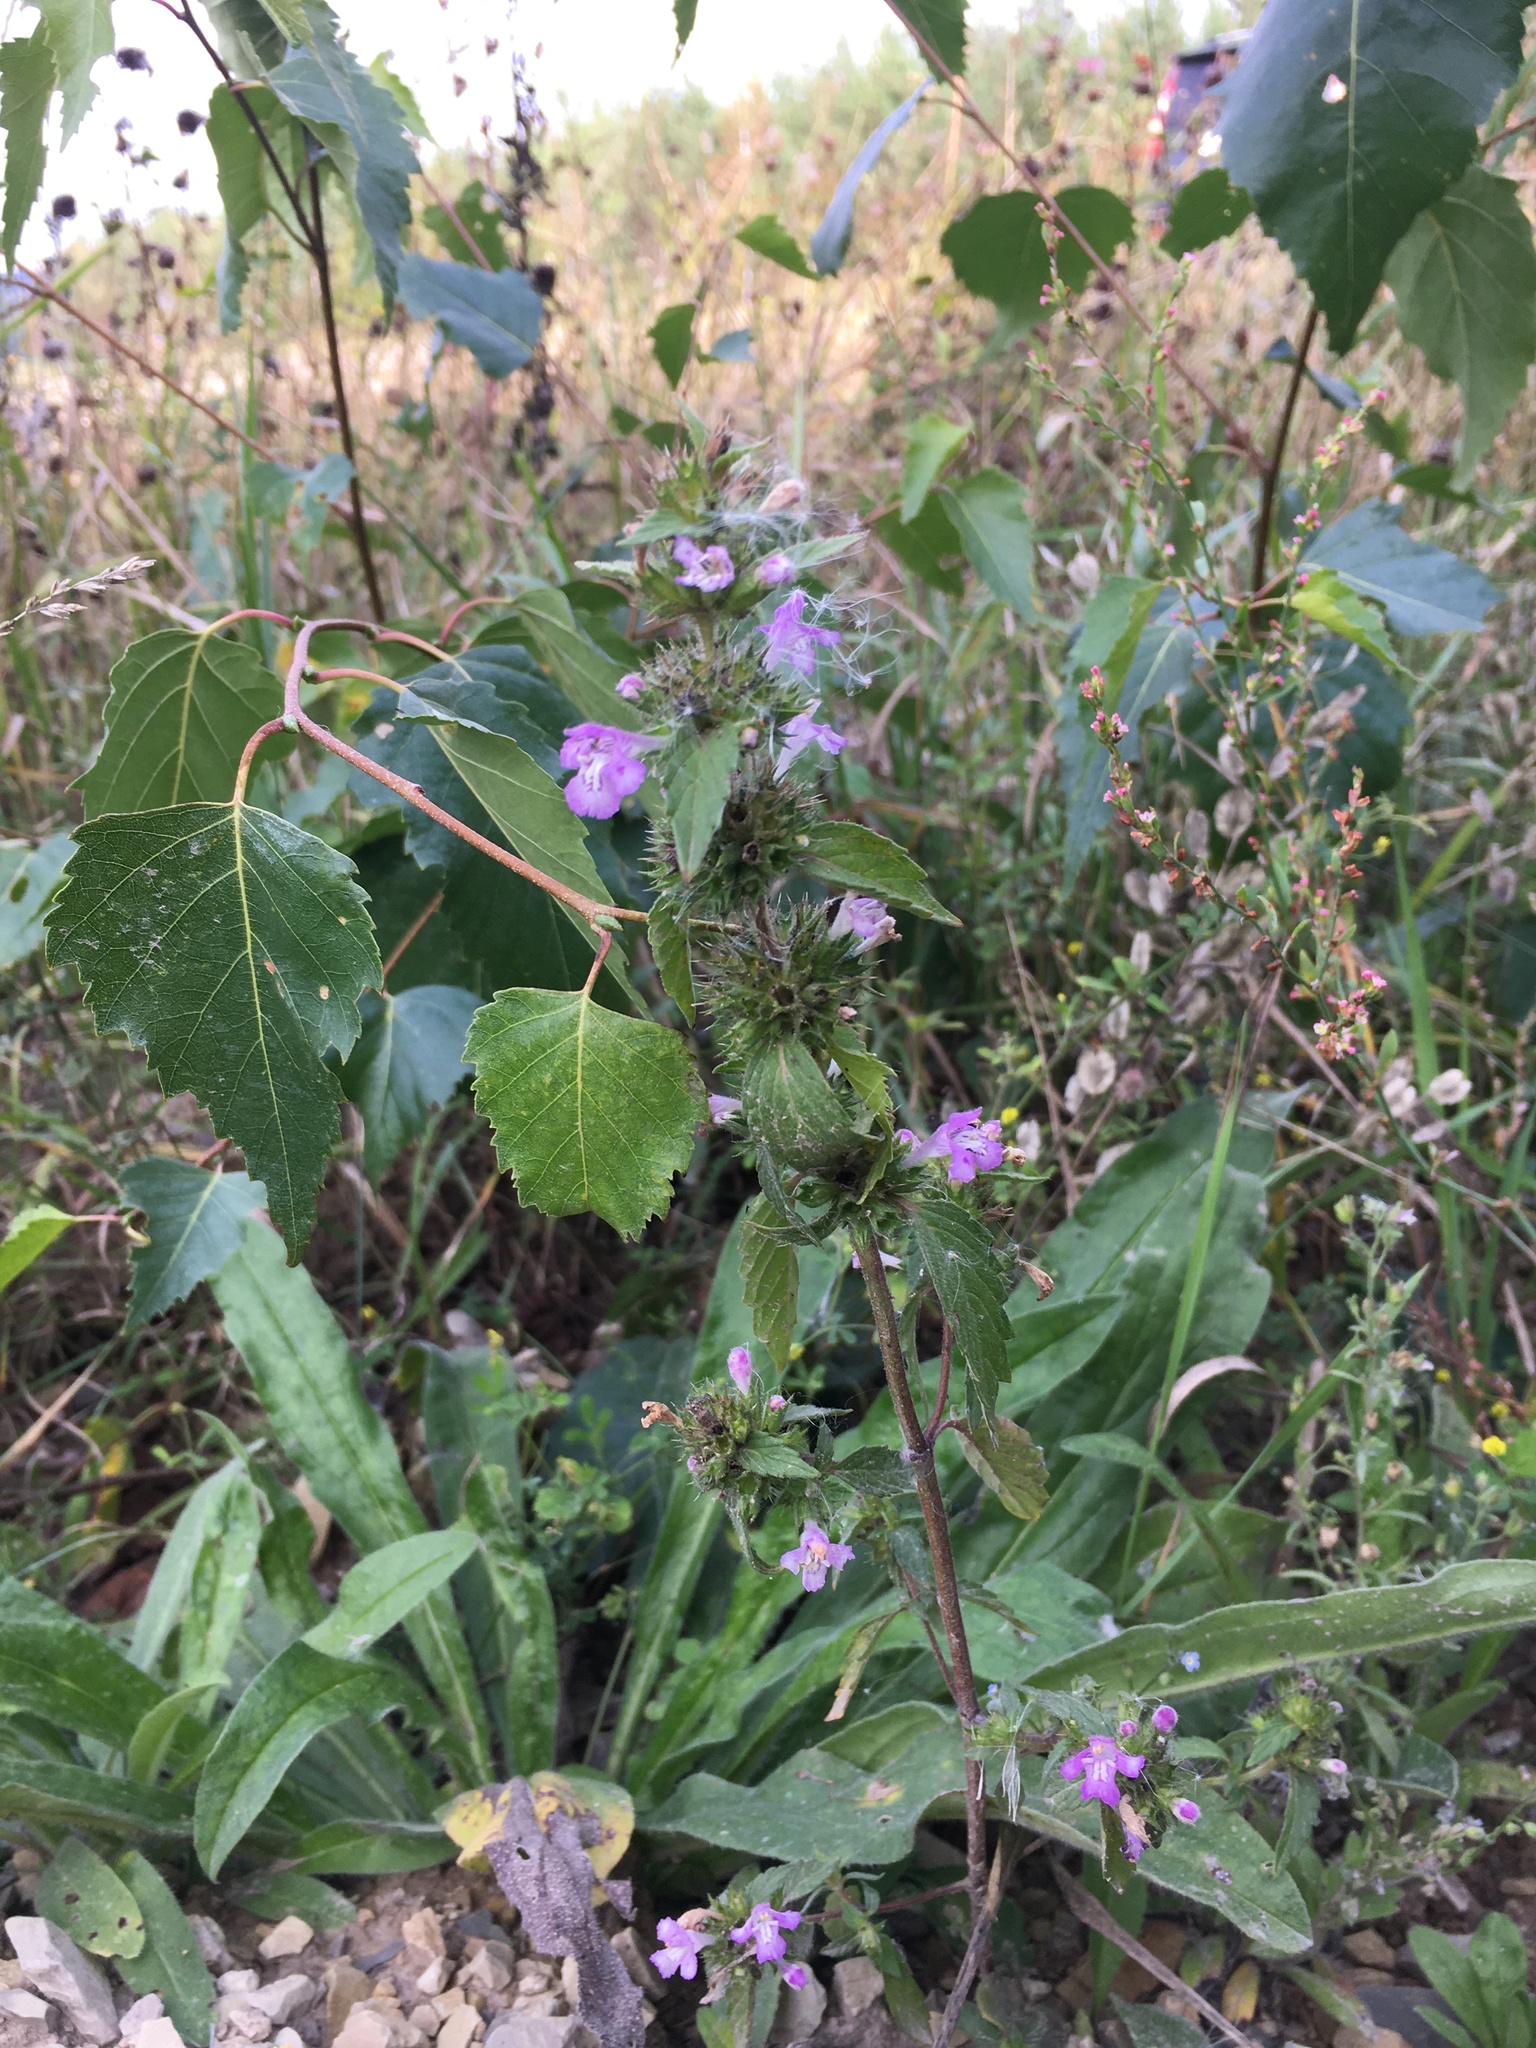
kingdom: Plantae
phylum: Tracheophyta
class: Magnoliopsida
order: Lamiales
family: Lamiaceae
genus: Galeopsis
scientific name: Galeopsis ladanum
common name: Broad-leaved hemp-nettle
